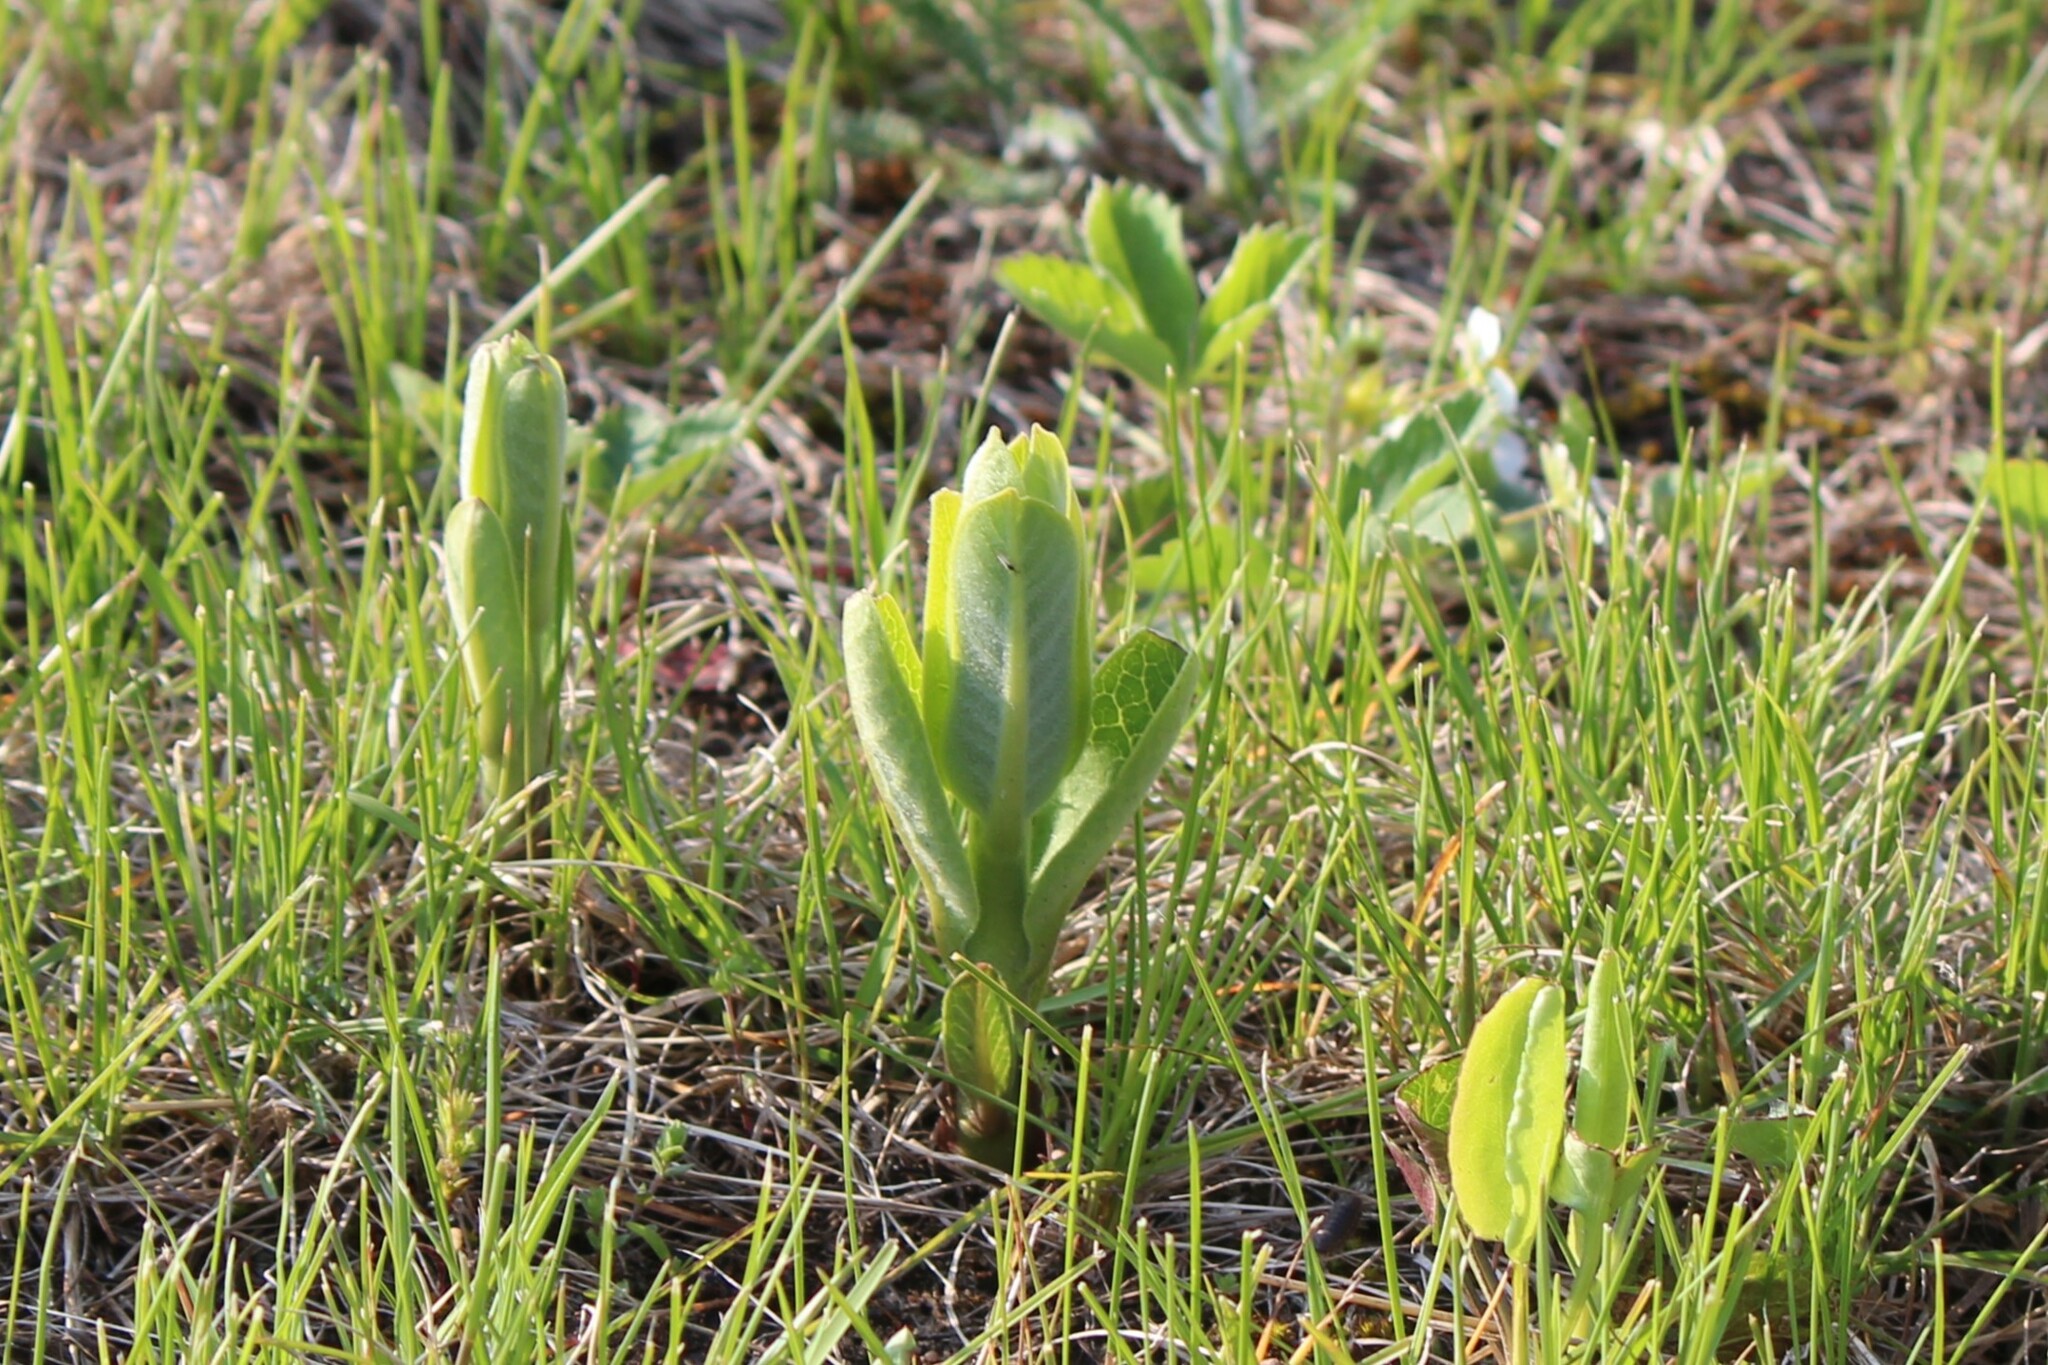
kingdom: Plantae
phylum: Tracheophyta
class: Magnoliopsida
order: Gentianales
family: Apocynaceae
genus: Asclepias
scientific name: Asclepias syriaca
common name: Common milkweed
